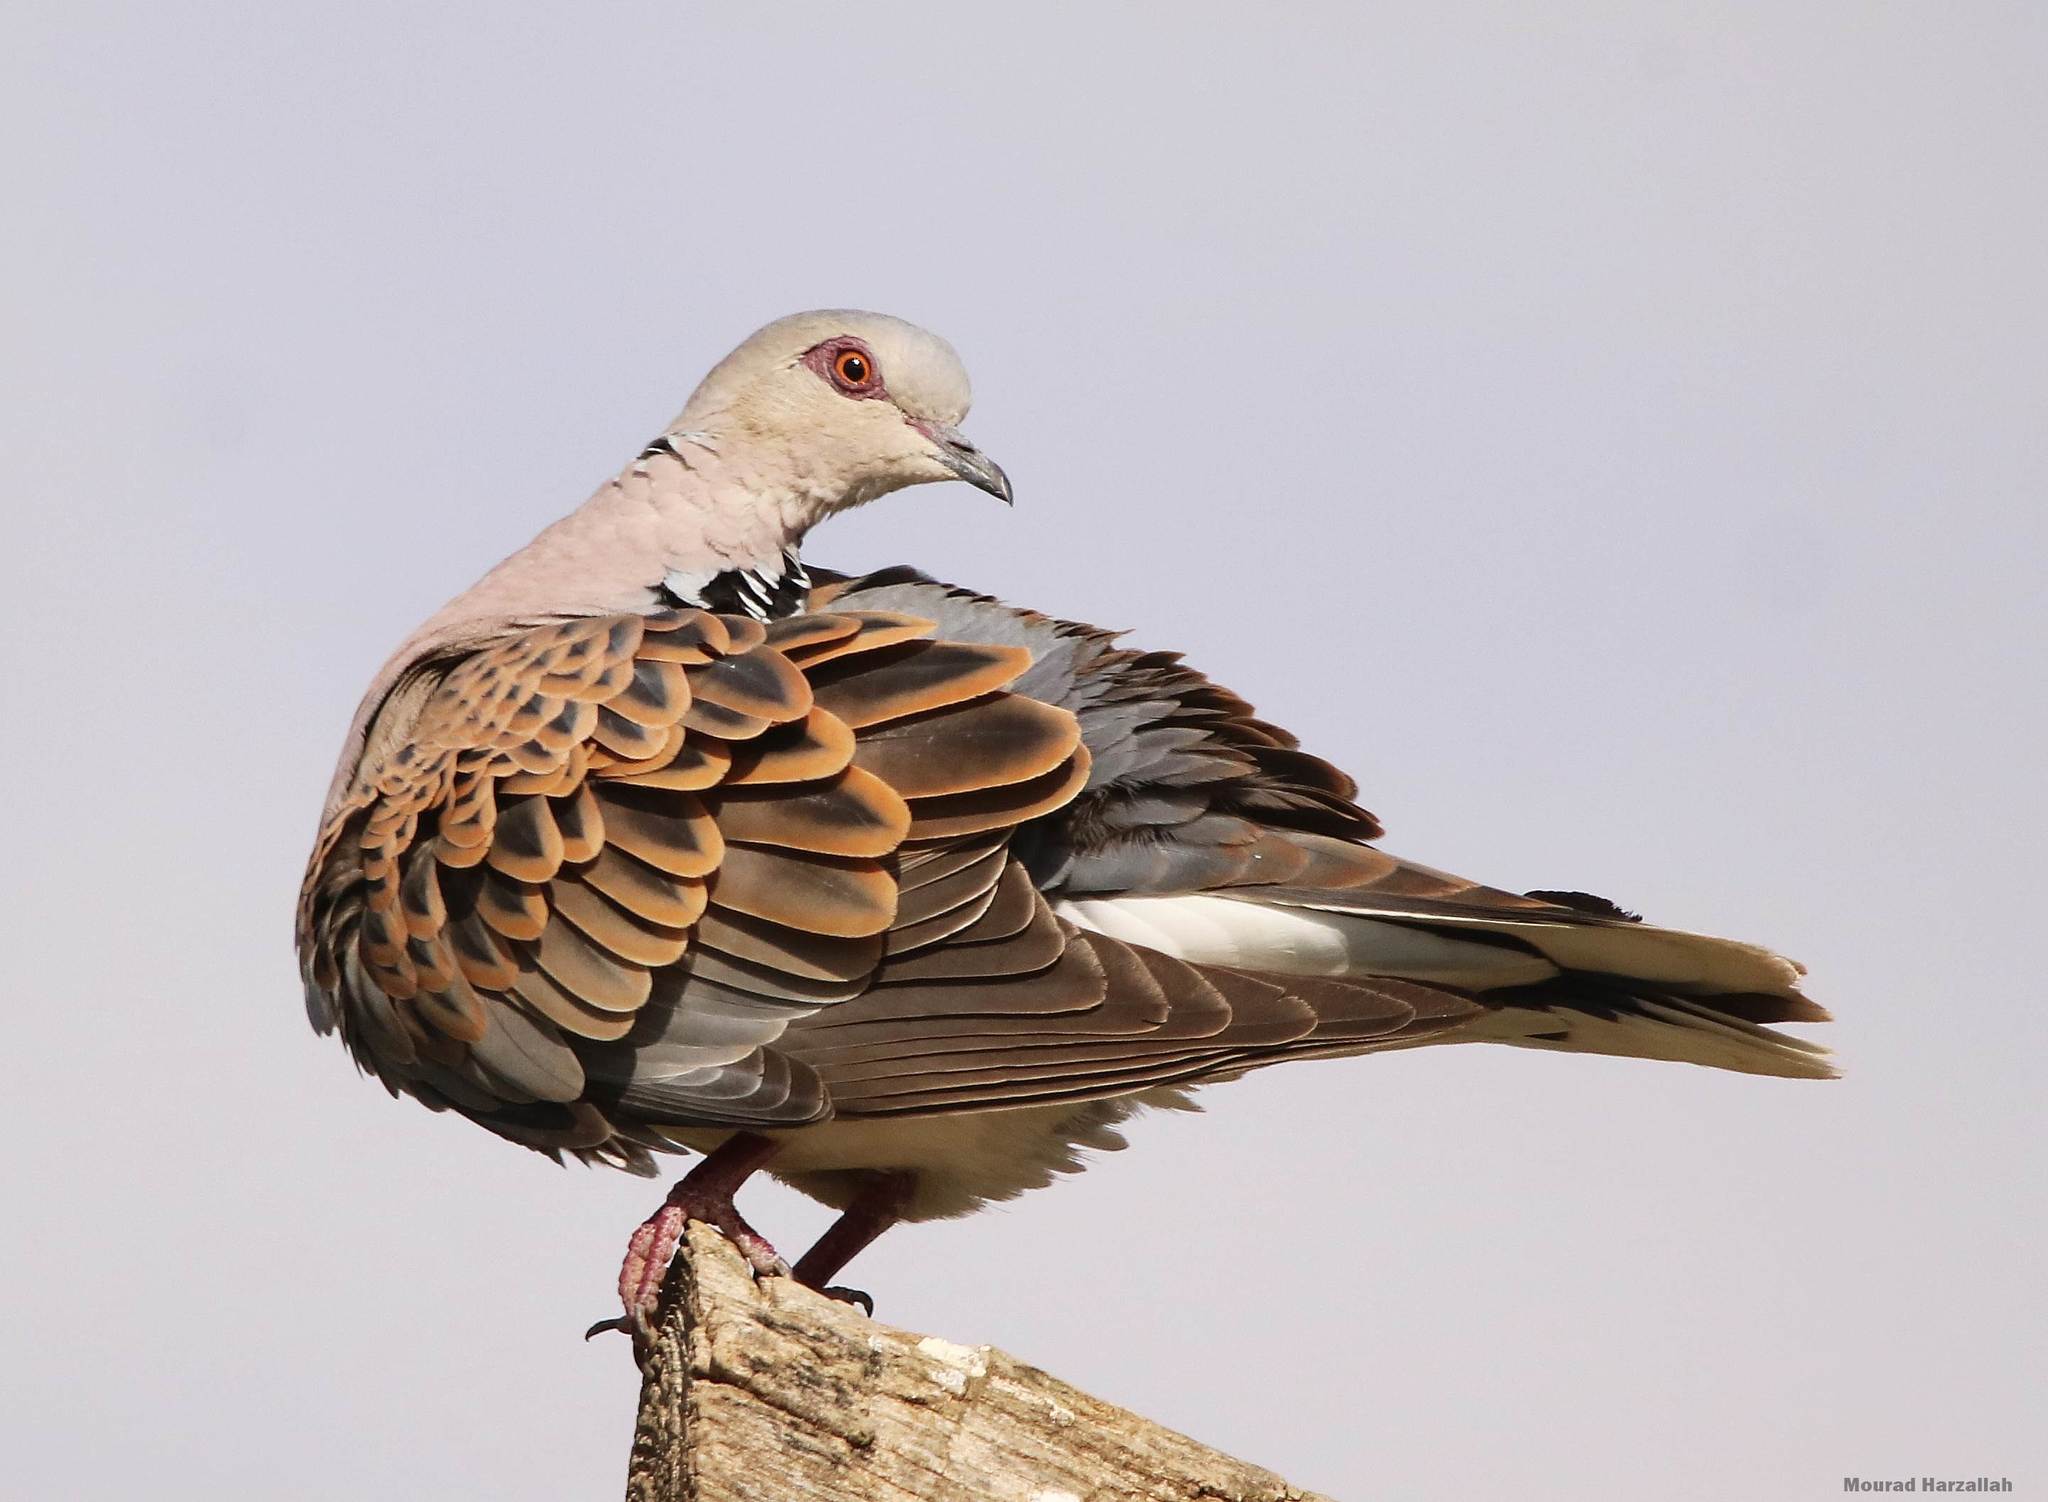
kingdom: Animalia
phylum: Chordata
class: Aves
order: Columbiformes
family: Columbidae
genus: Streptopelia
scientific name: Streptopelia turtur
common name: European turtle dove
